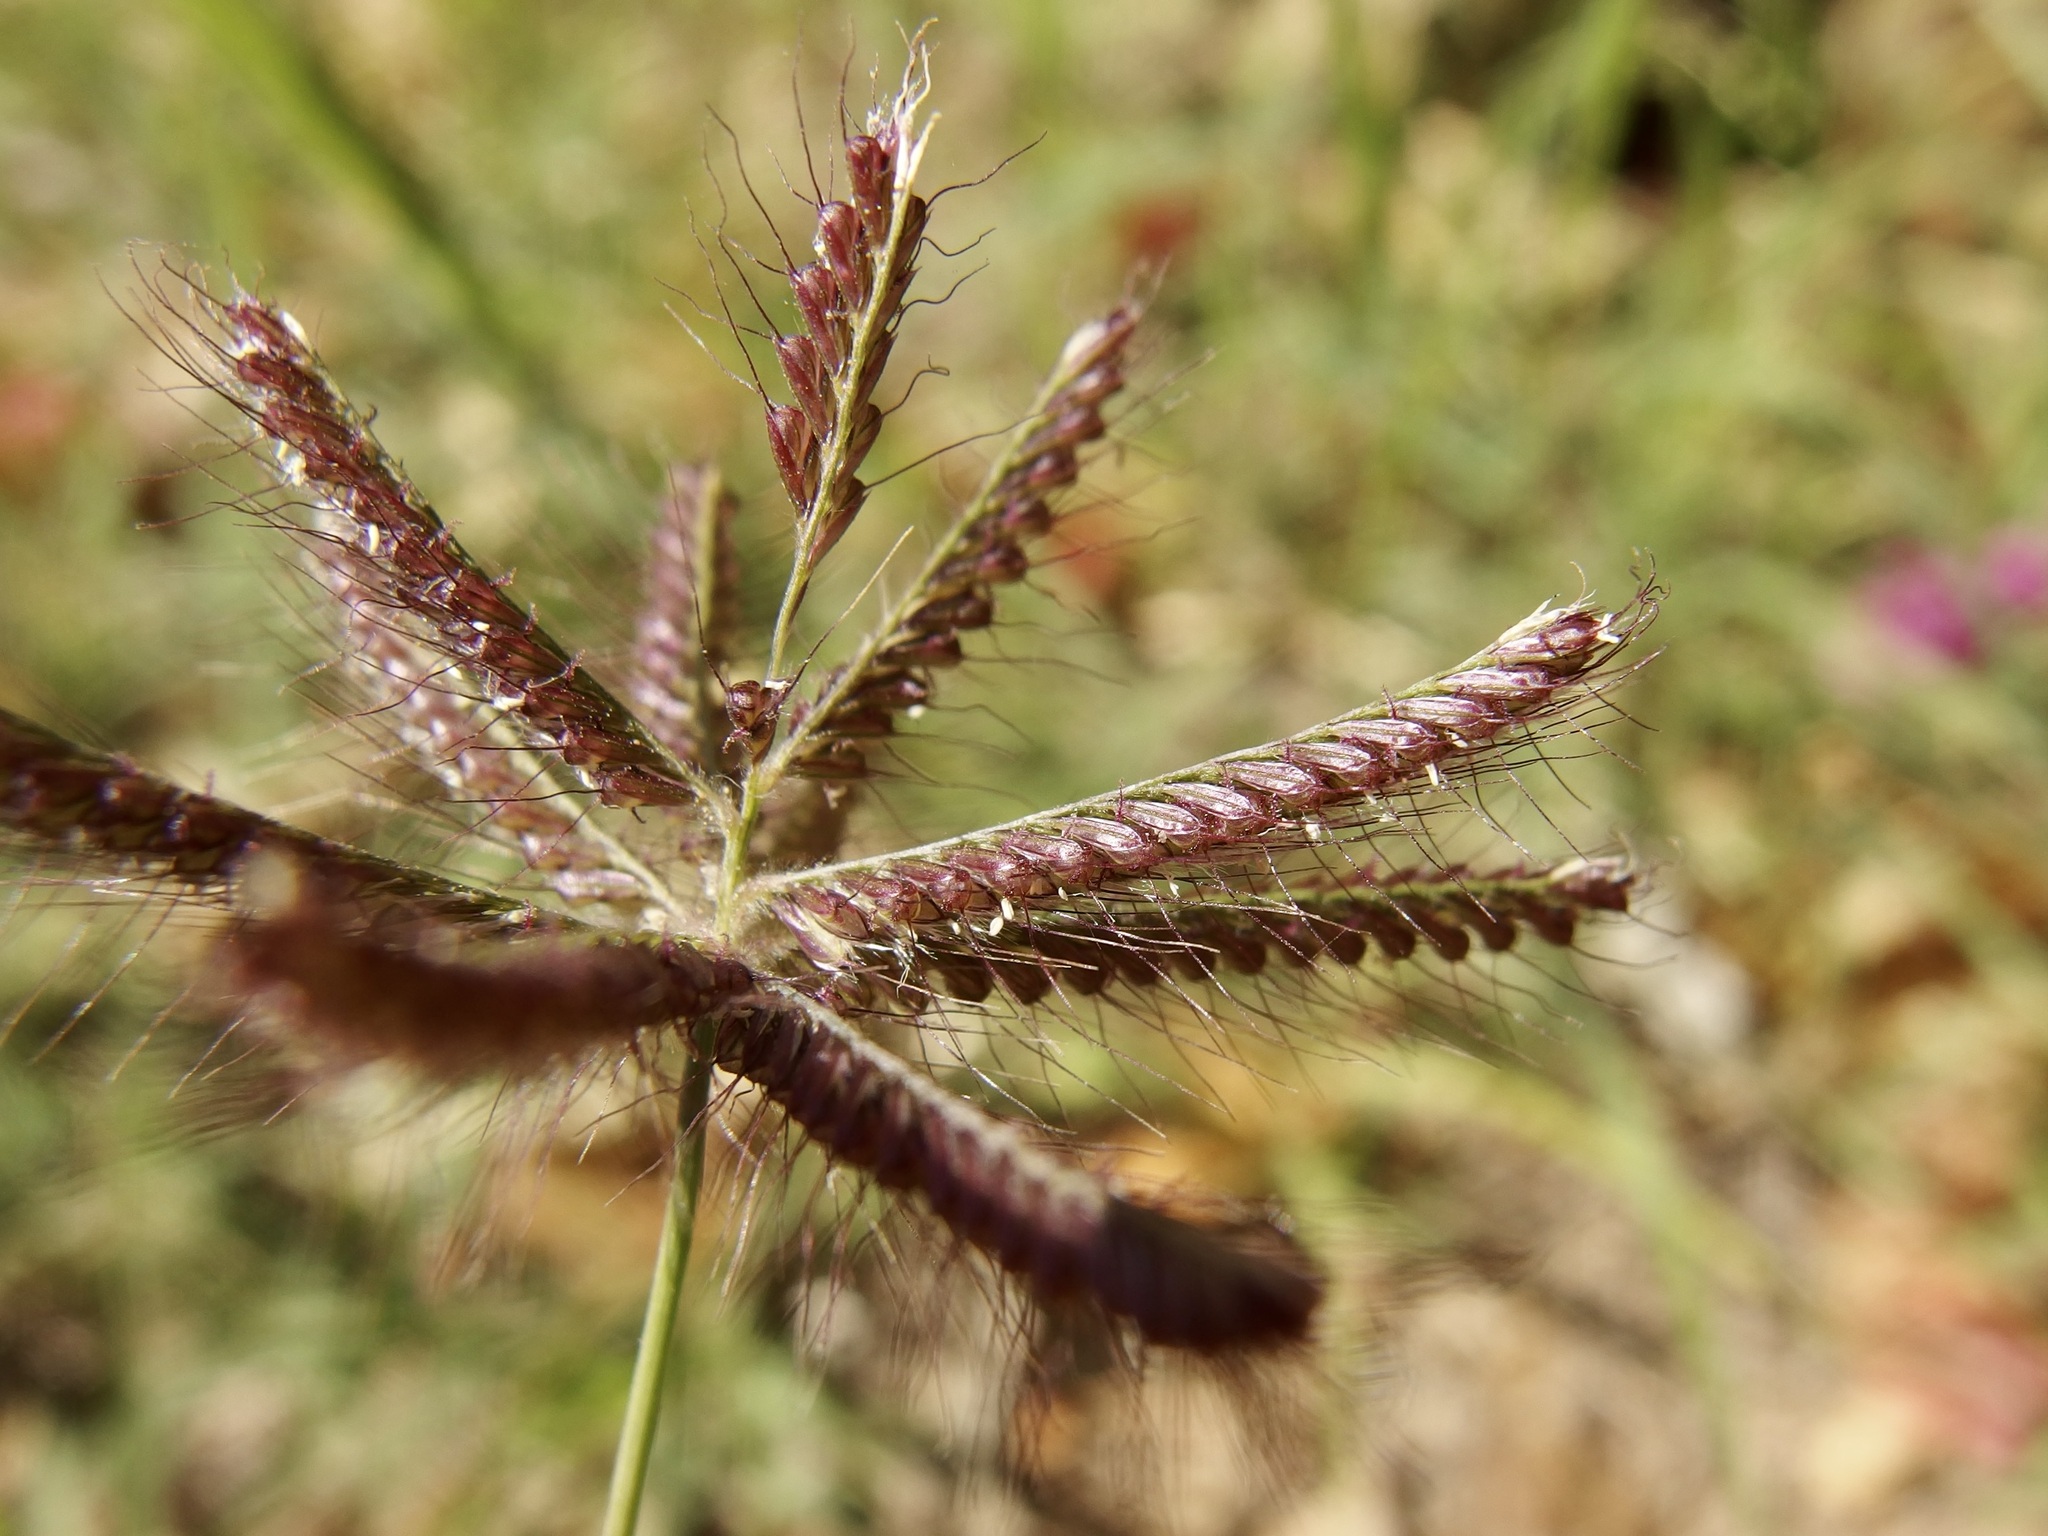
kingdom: Plantae
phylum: Tracheophyta
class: Liliopsida
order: Poales
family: Poaceae
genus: Chloris
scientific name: Chloris barbata
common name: Swollen fingergrass
